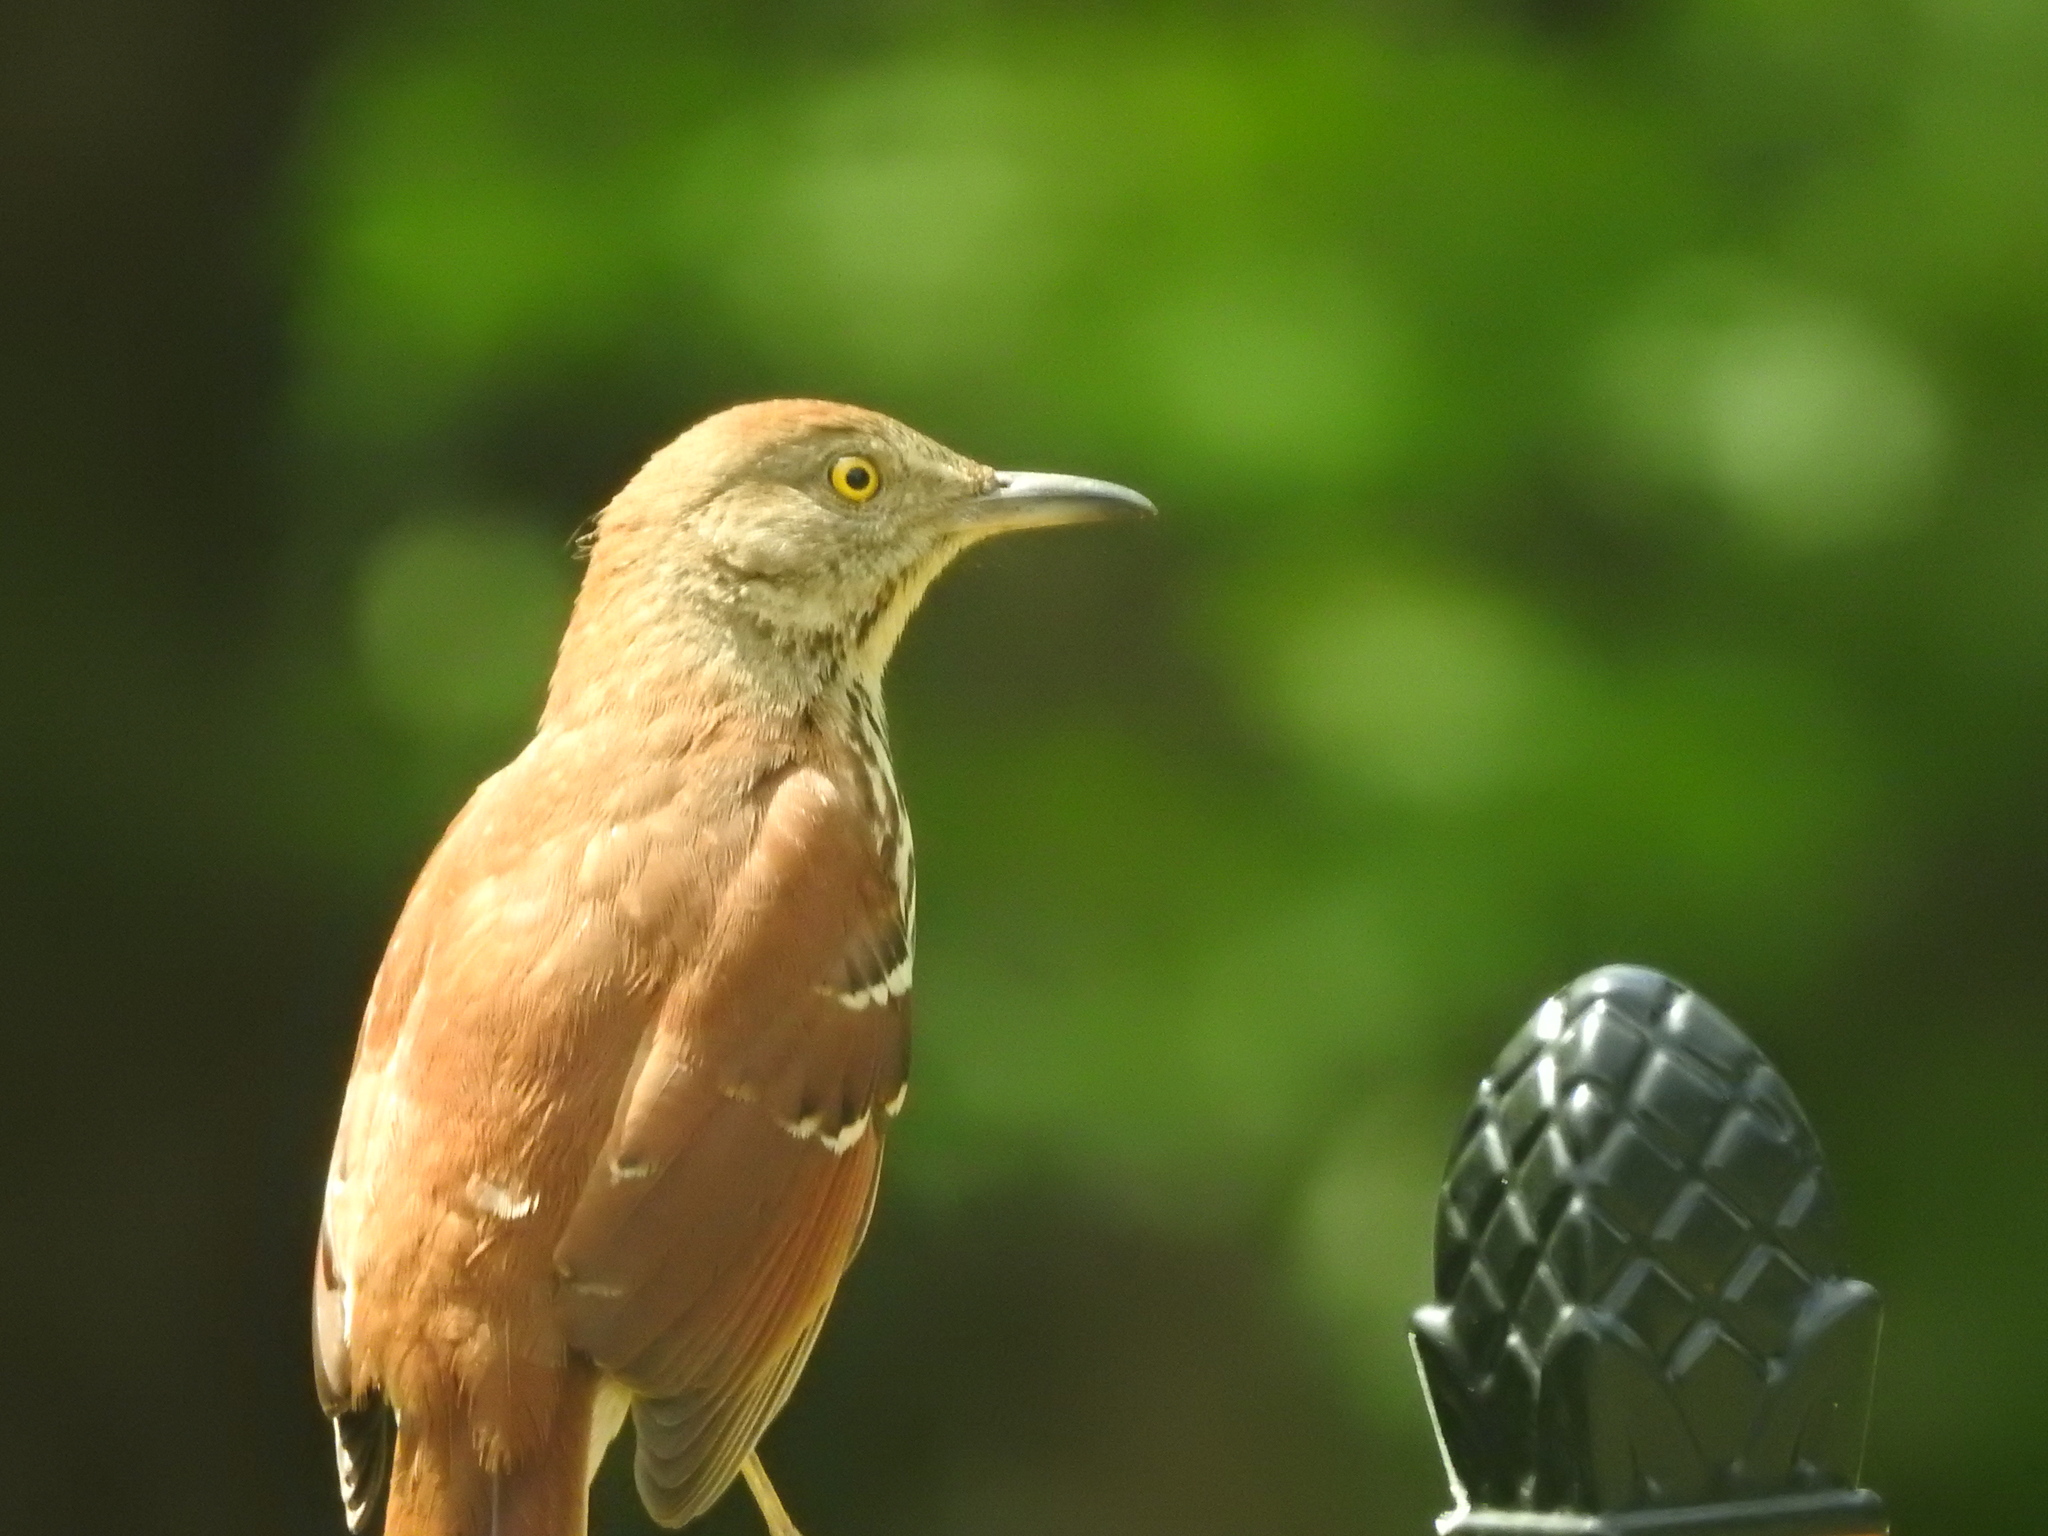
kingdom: Animalia
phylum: Chordata
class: Aves
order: Passeriformes
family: Mimidae
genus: Toxostoma
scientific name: Toxostoma rufum
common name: Brown thrasher
